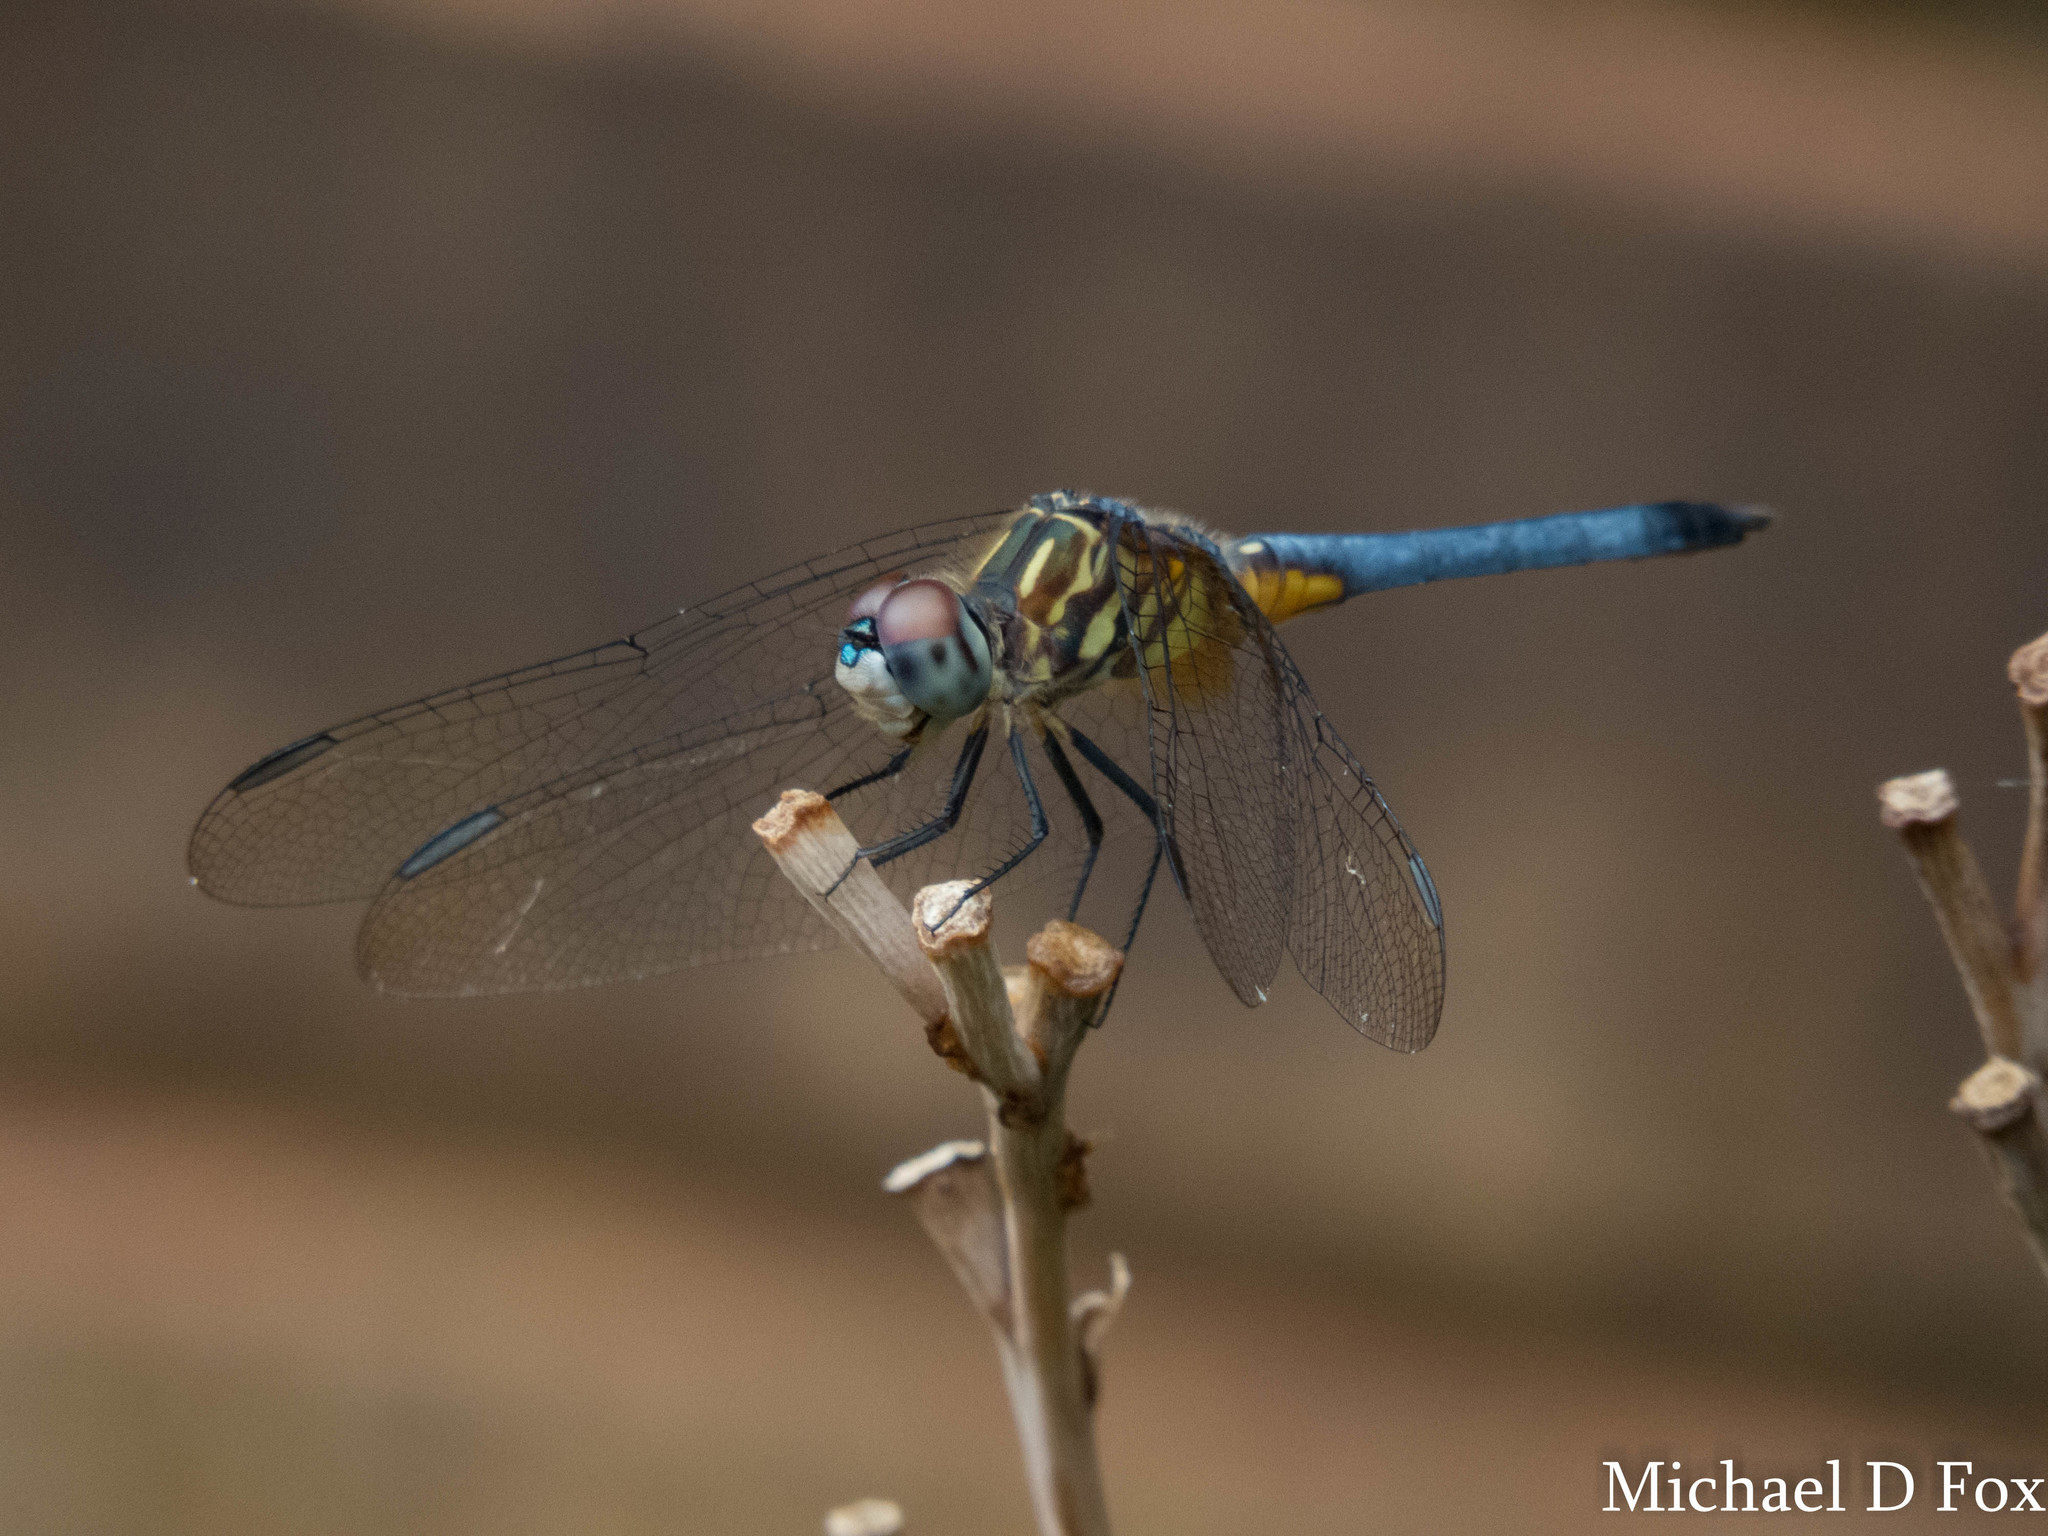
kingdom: Animalia
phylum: Arthropoda
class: Insecta
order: Odonata
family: Libellulidae
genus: Pachydiplax
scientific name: Pachydiplax longipennis
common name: Blue dasher
